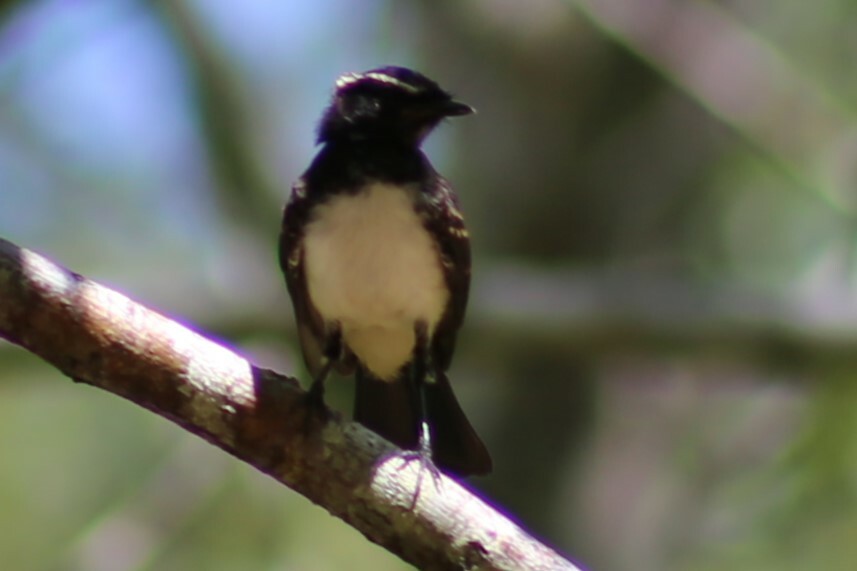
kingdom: Animalia
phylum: Chordata
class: Aves
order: Passeriformes
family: Rhipiduridae
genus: Rhipidura
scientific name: Rhipidura leucophrys
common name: Willie wagtail
